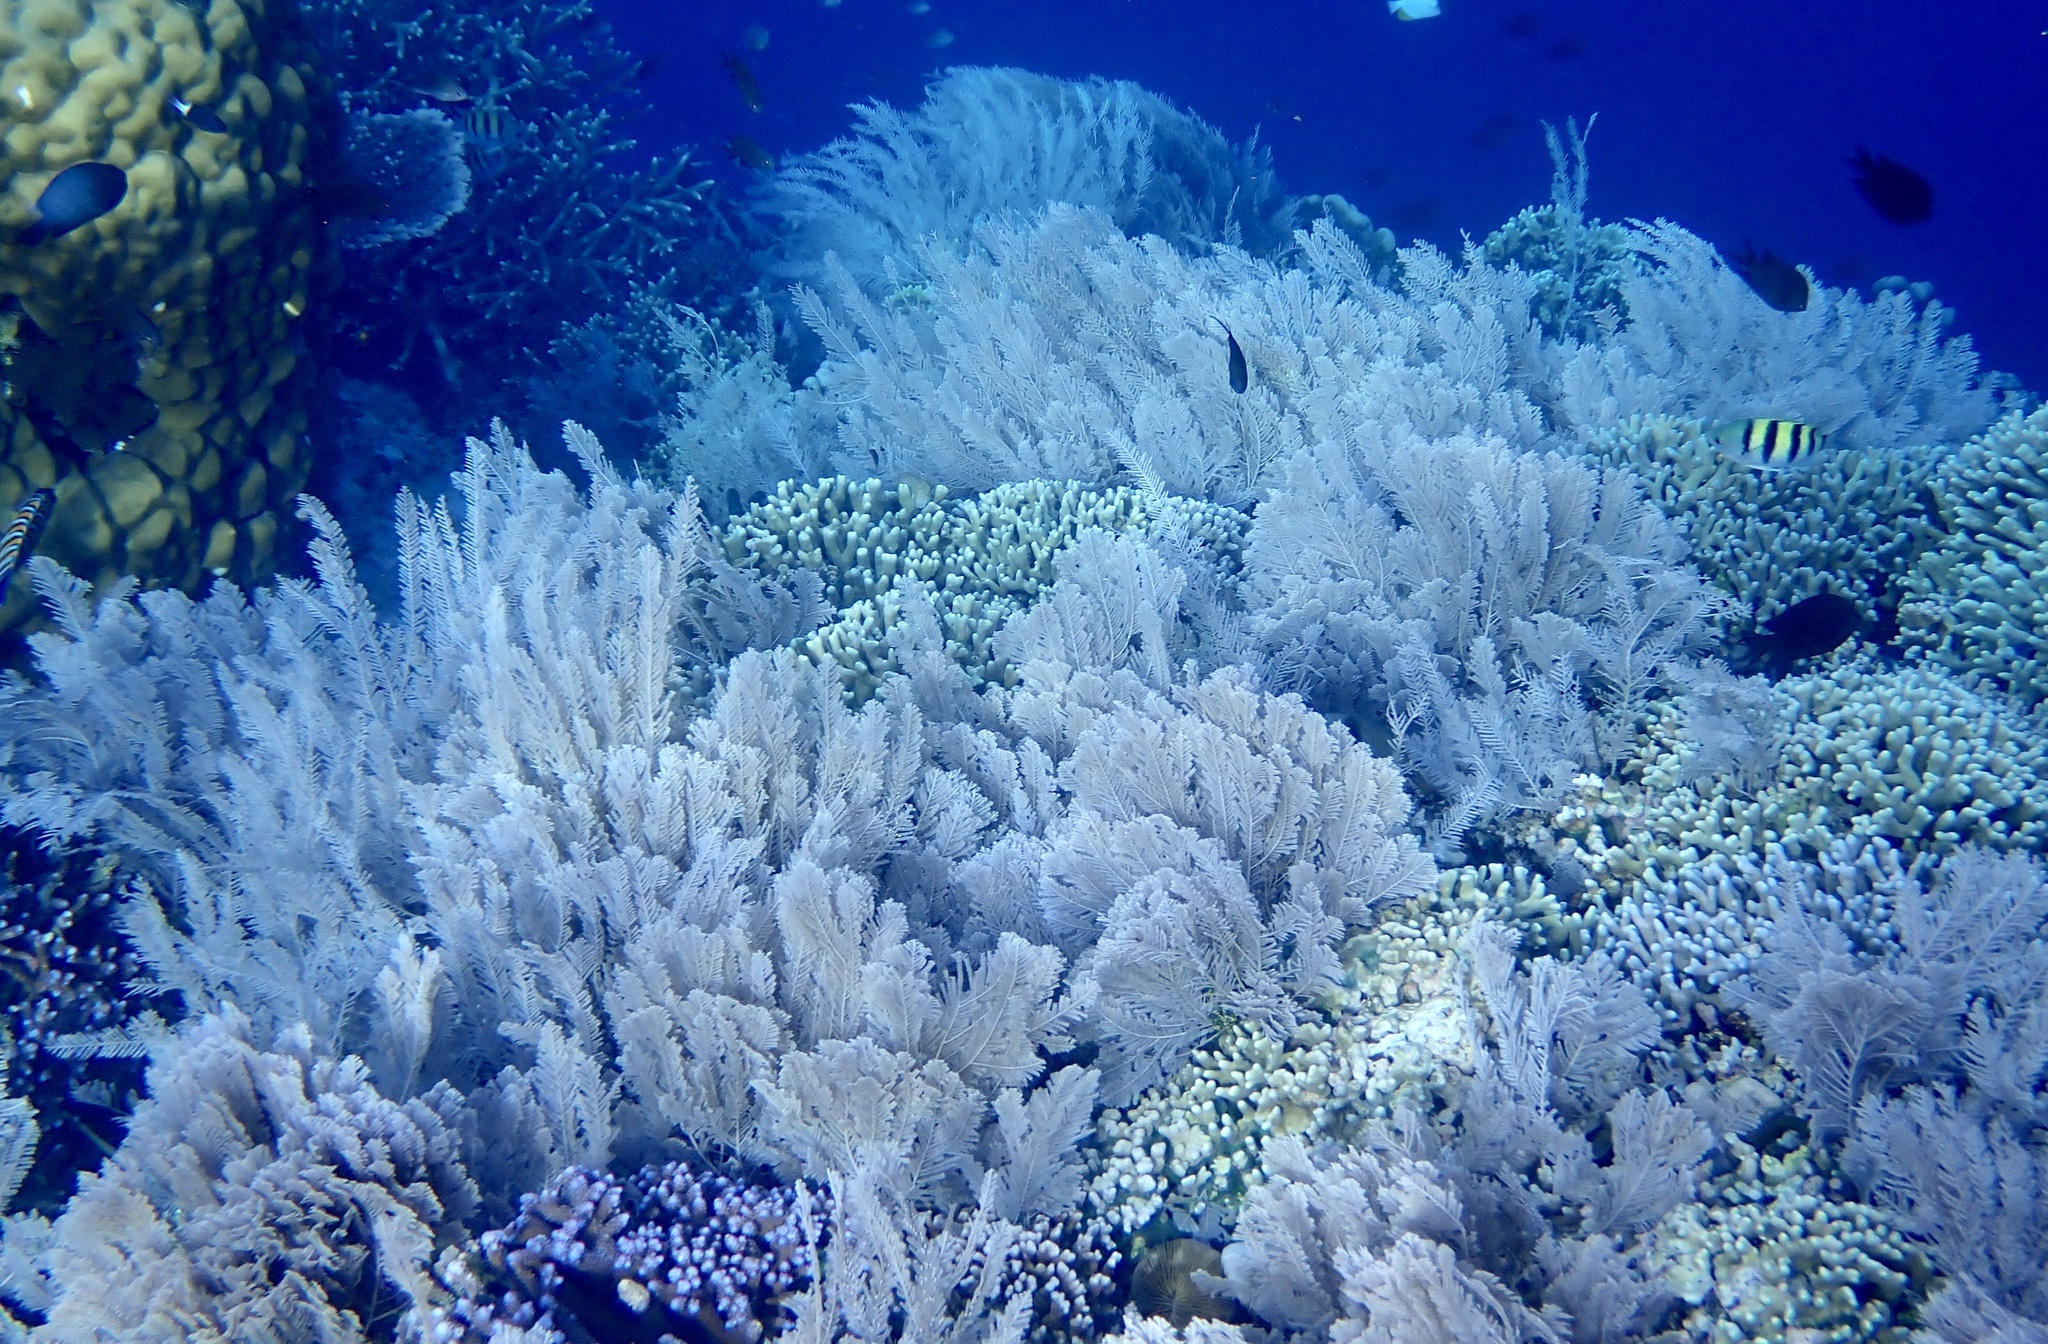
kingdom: Animalia
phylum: Cnidaria
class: Hydrozoa
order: Leptothecata
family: Aglaopheniidae
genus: Pachyrhynchia
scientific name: Pachyrhynchia cuppressina
